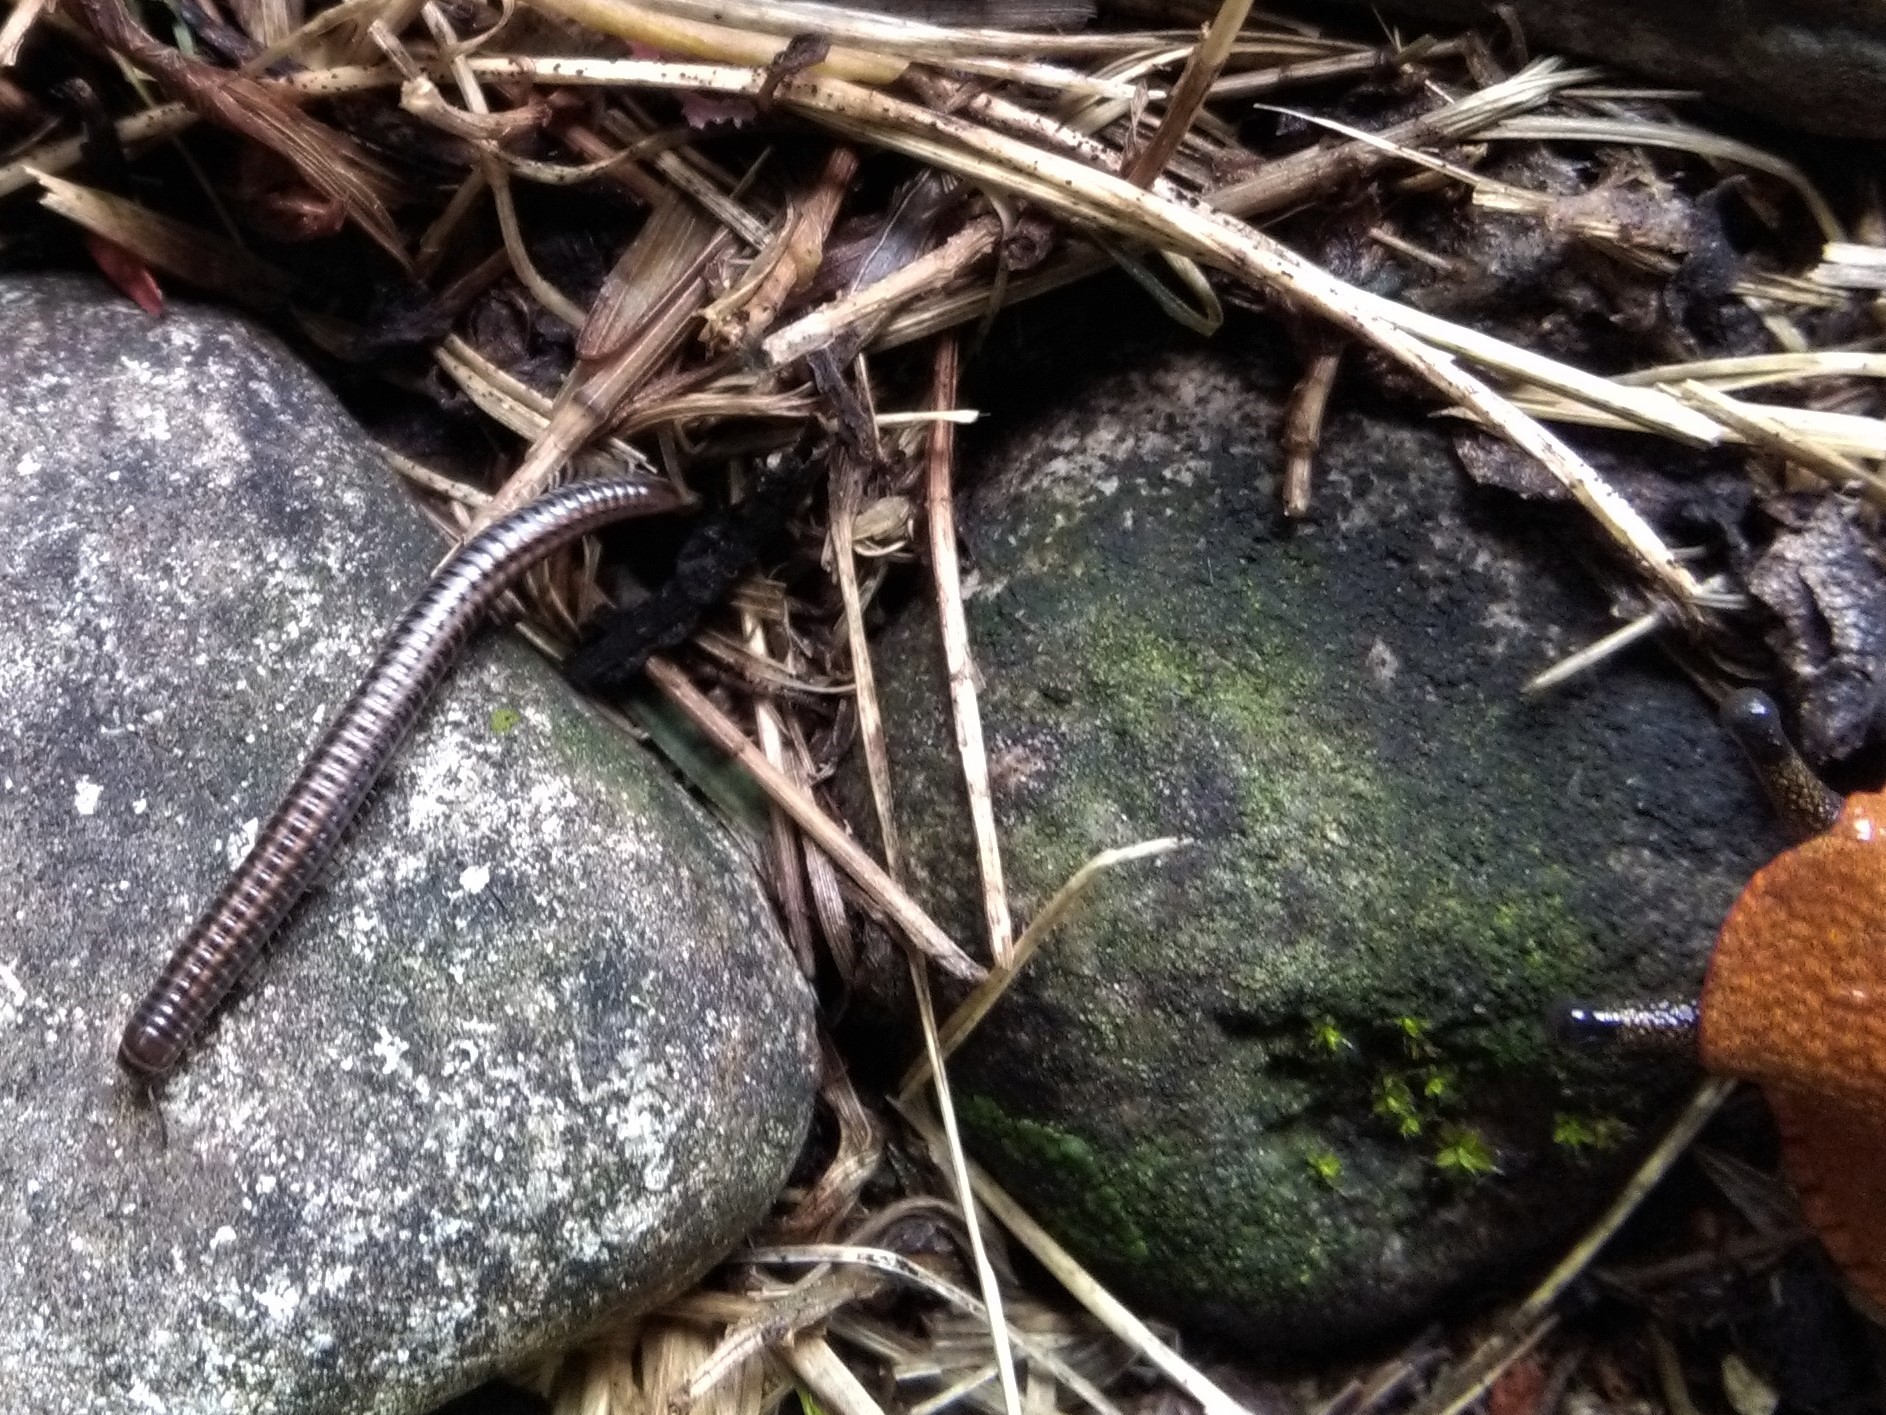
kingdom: Animalia
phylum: Arthropoda
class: Diplopoda
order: Julida
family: Julidae
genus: Ommatoiulus
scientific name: Ommatoiulus sabulosus
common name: Striped millipede
